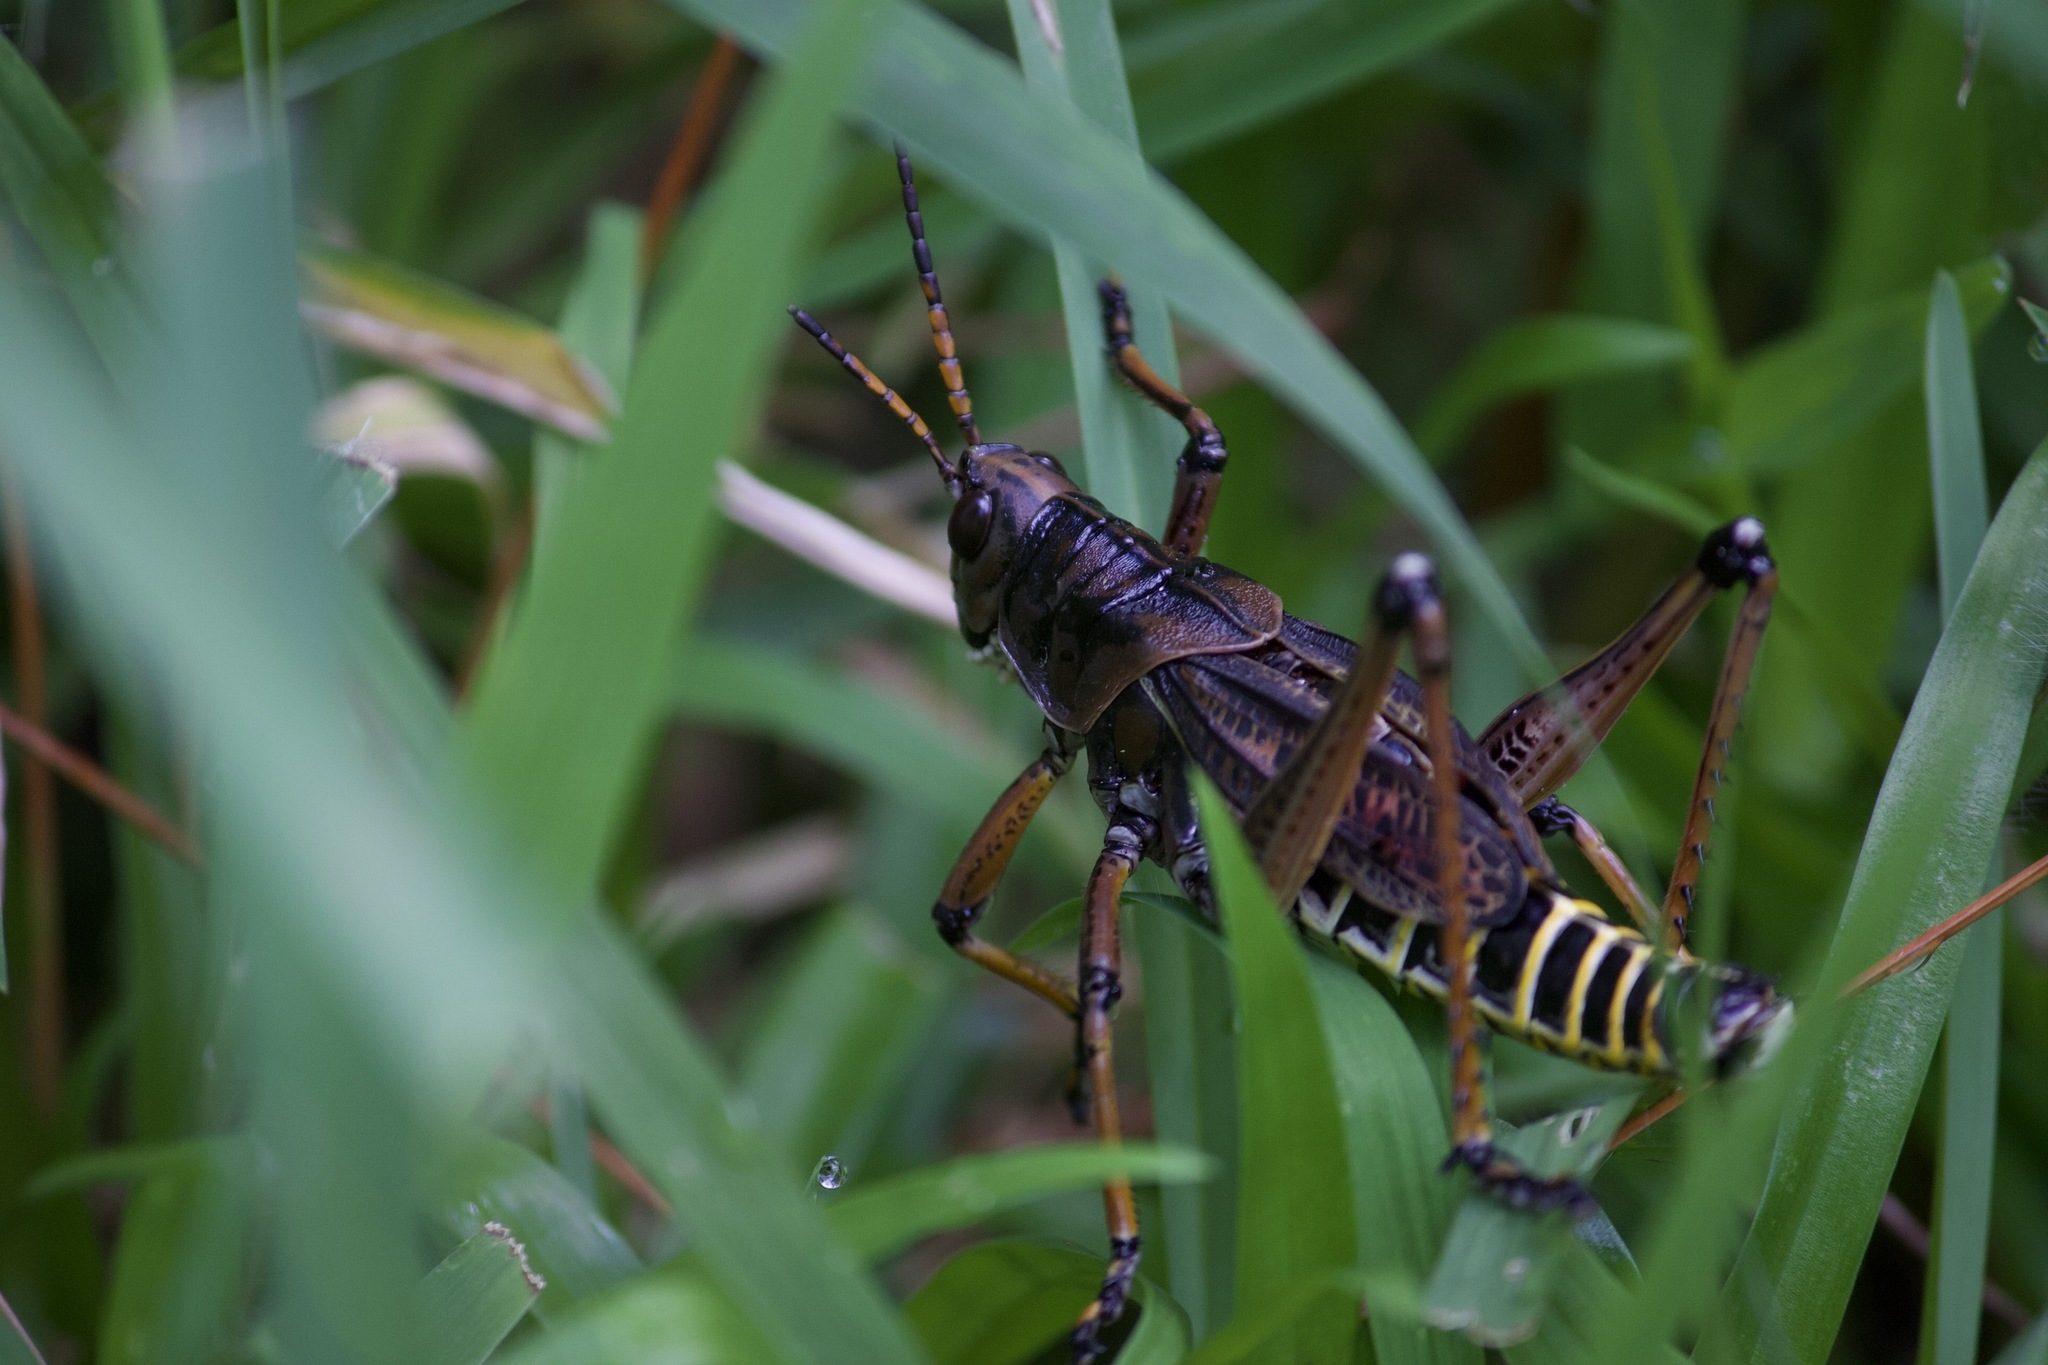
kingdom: Animalia
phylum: Arthropoda
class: Insecta
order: Orthoptera
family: Romaleidae
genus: Romalea
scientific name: Romalea microptera
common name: Eastern lubber grasshopper
